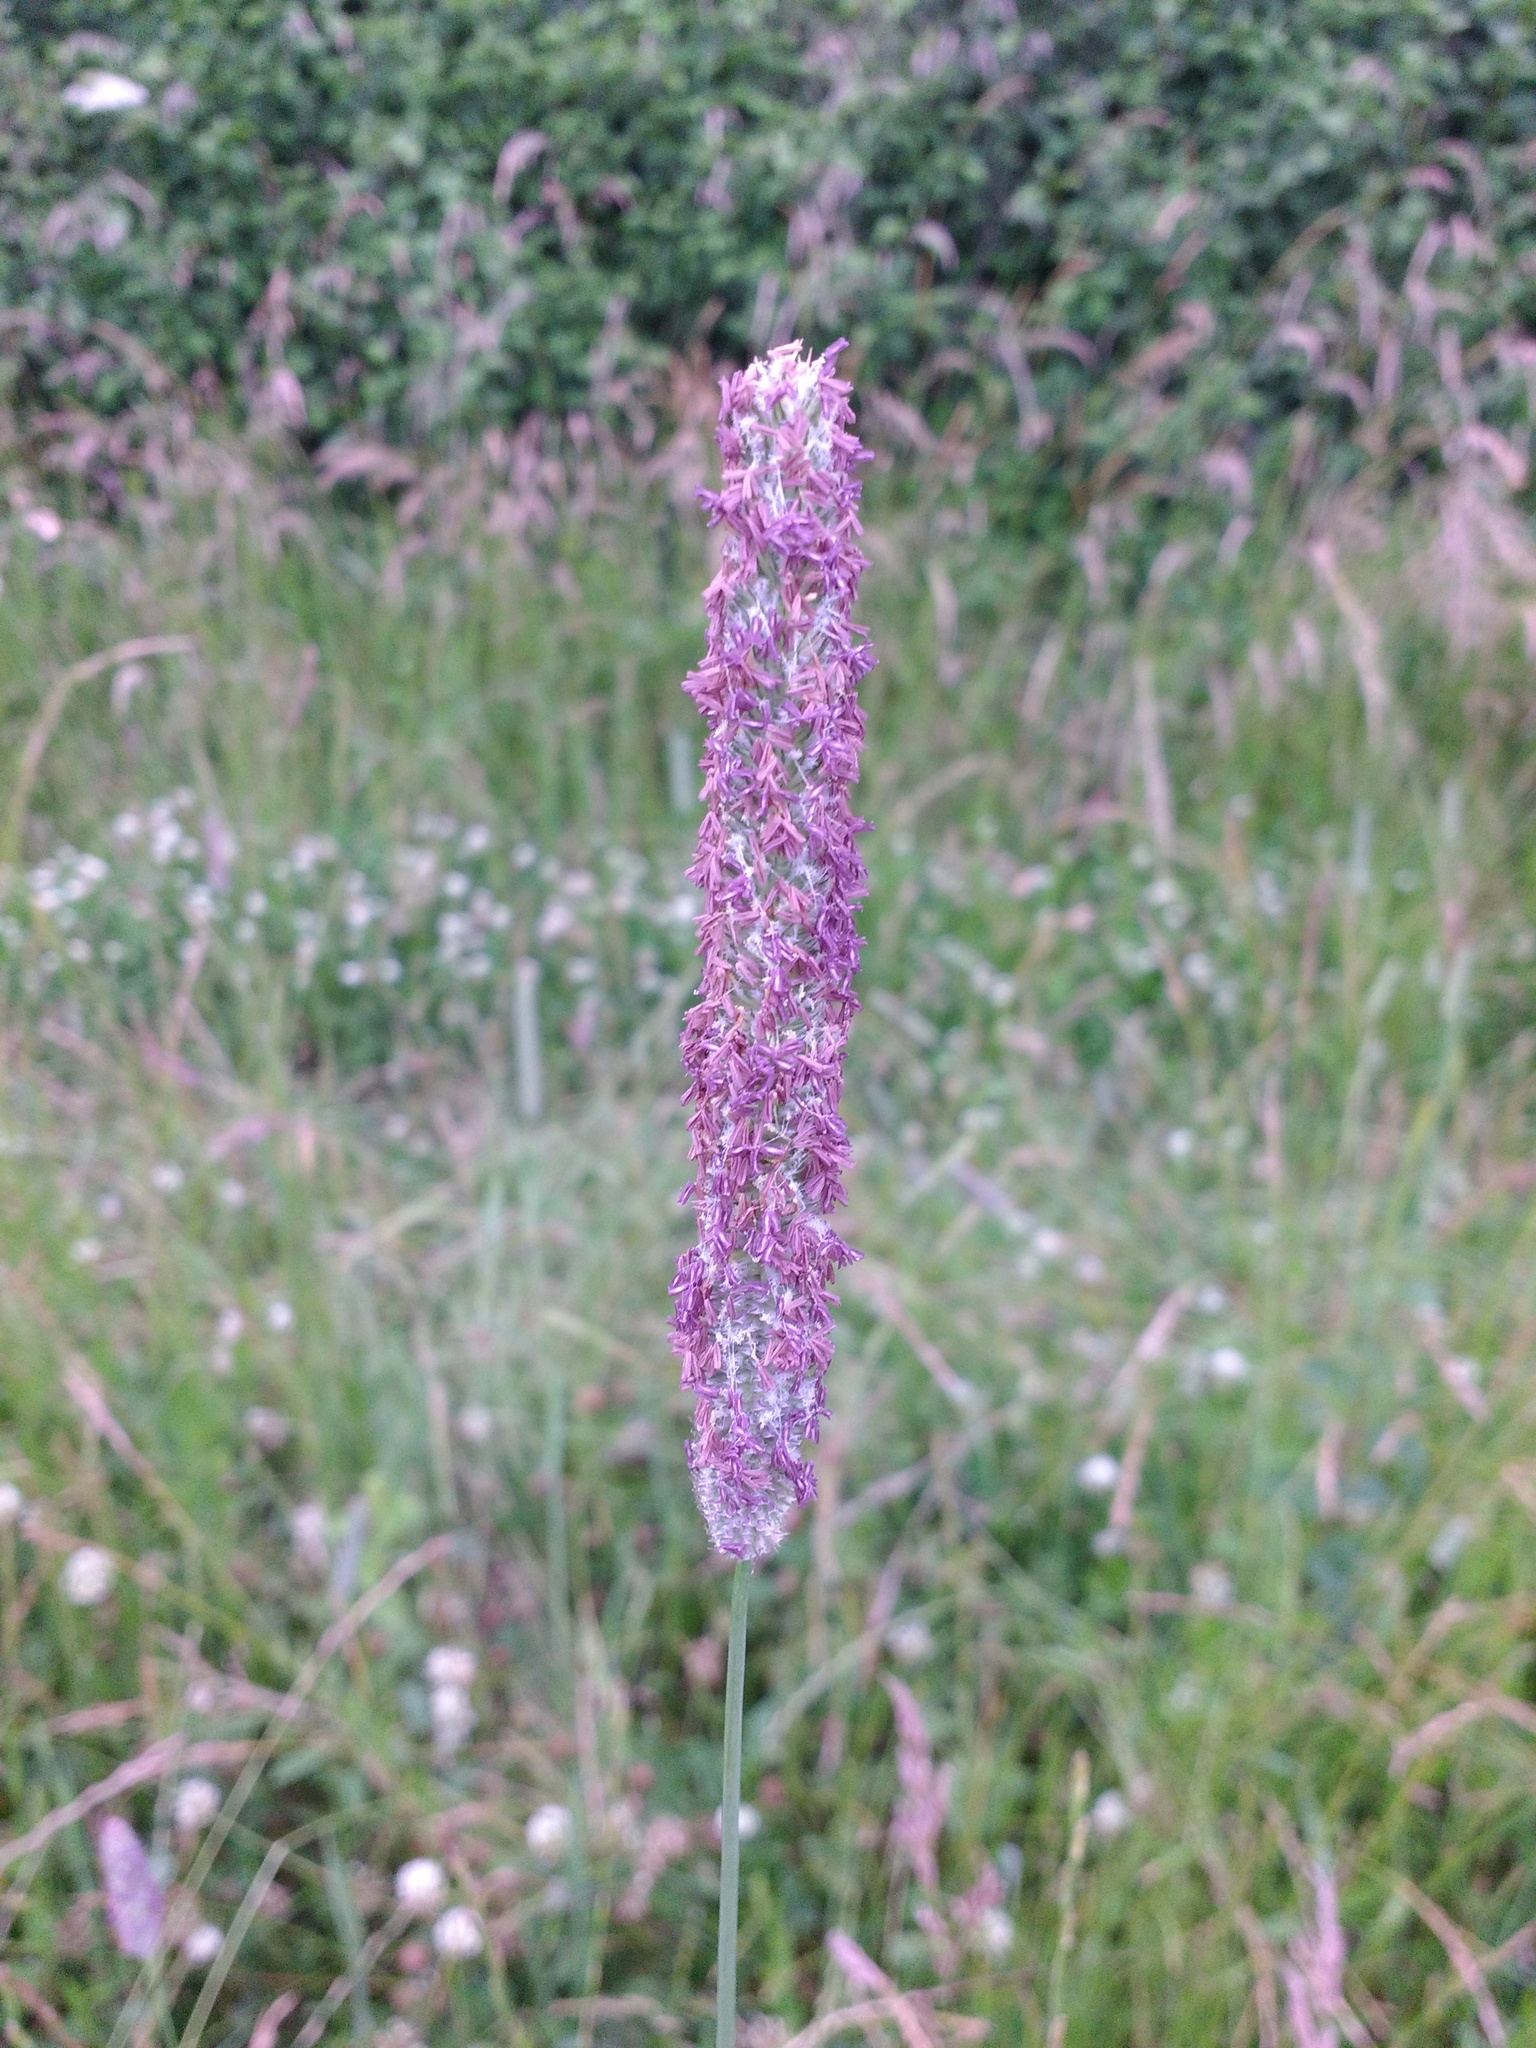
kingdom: Plantae
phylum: Tracheophyta
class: Liliopsida
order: Poales
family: Poaceae
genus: Phleum
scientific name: Phleum pratense
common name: Timothy grass
